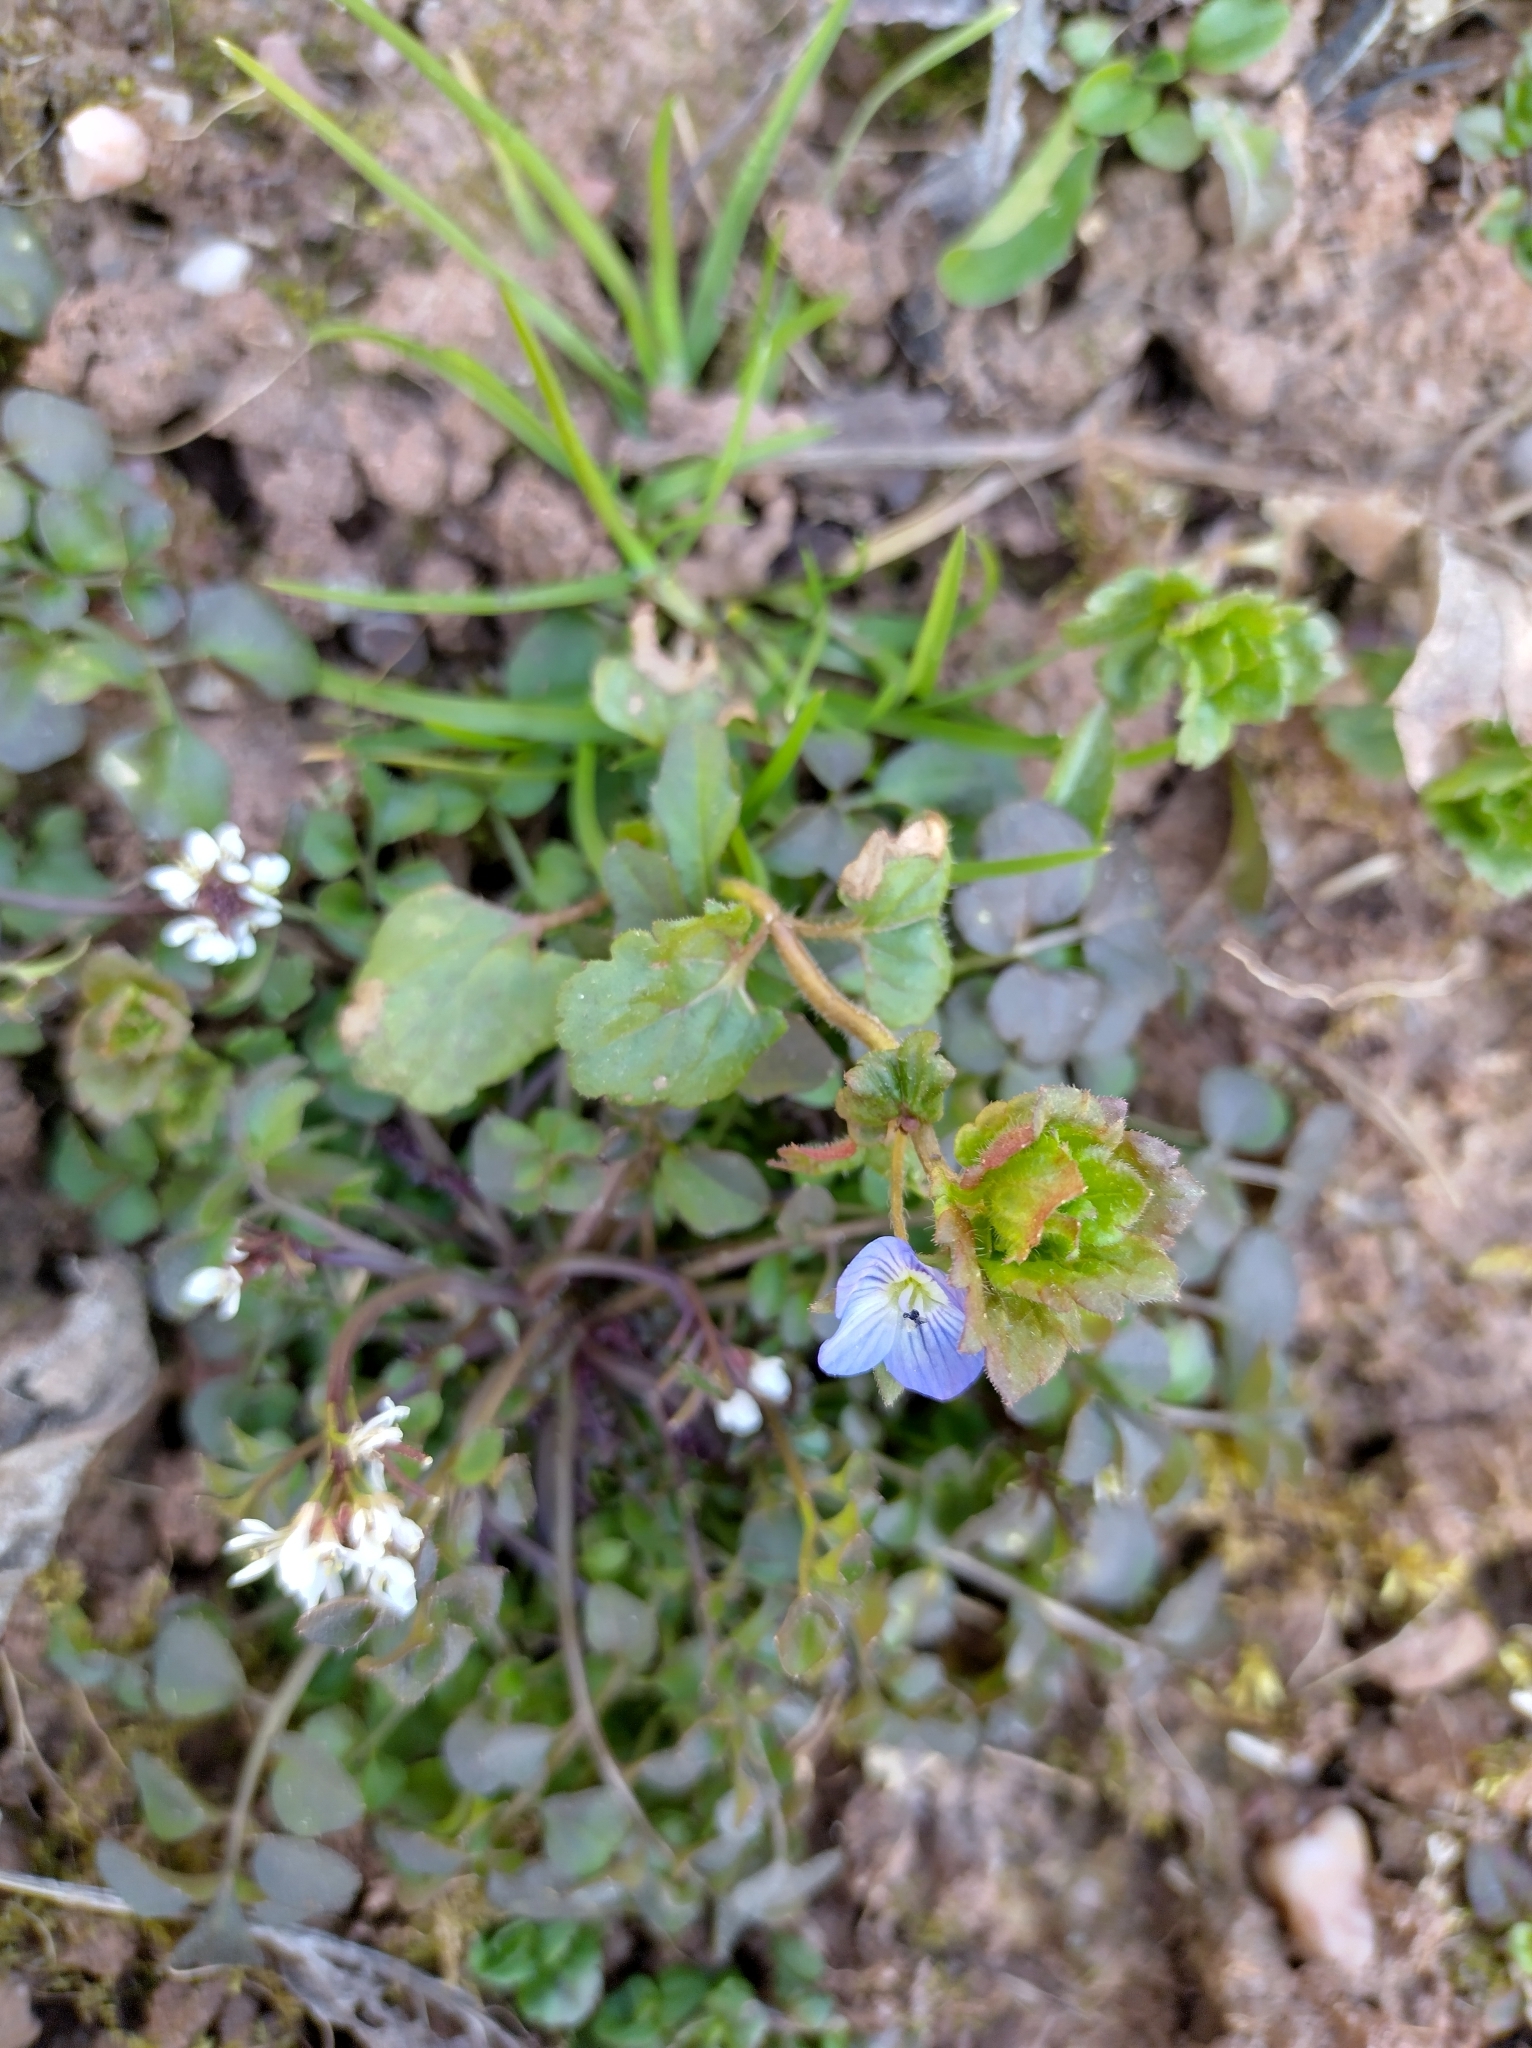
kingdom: Plantae
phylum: Tracheophyta
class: Magnoliopsida
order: Lamiales
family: Plantaginaceae
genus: Veronica
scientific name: Veronica persica
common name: Common field-speedwell
